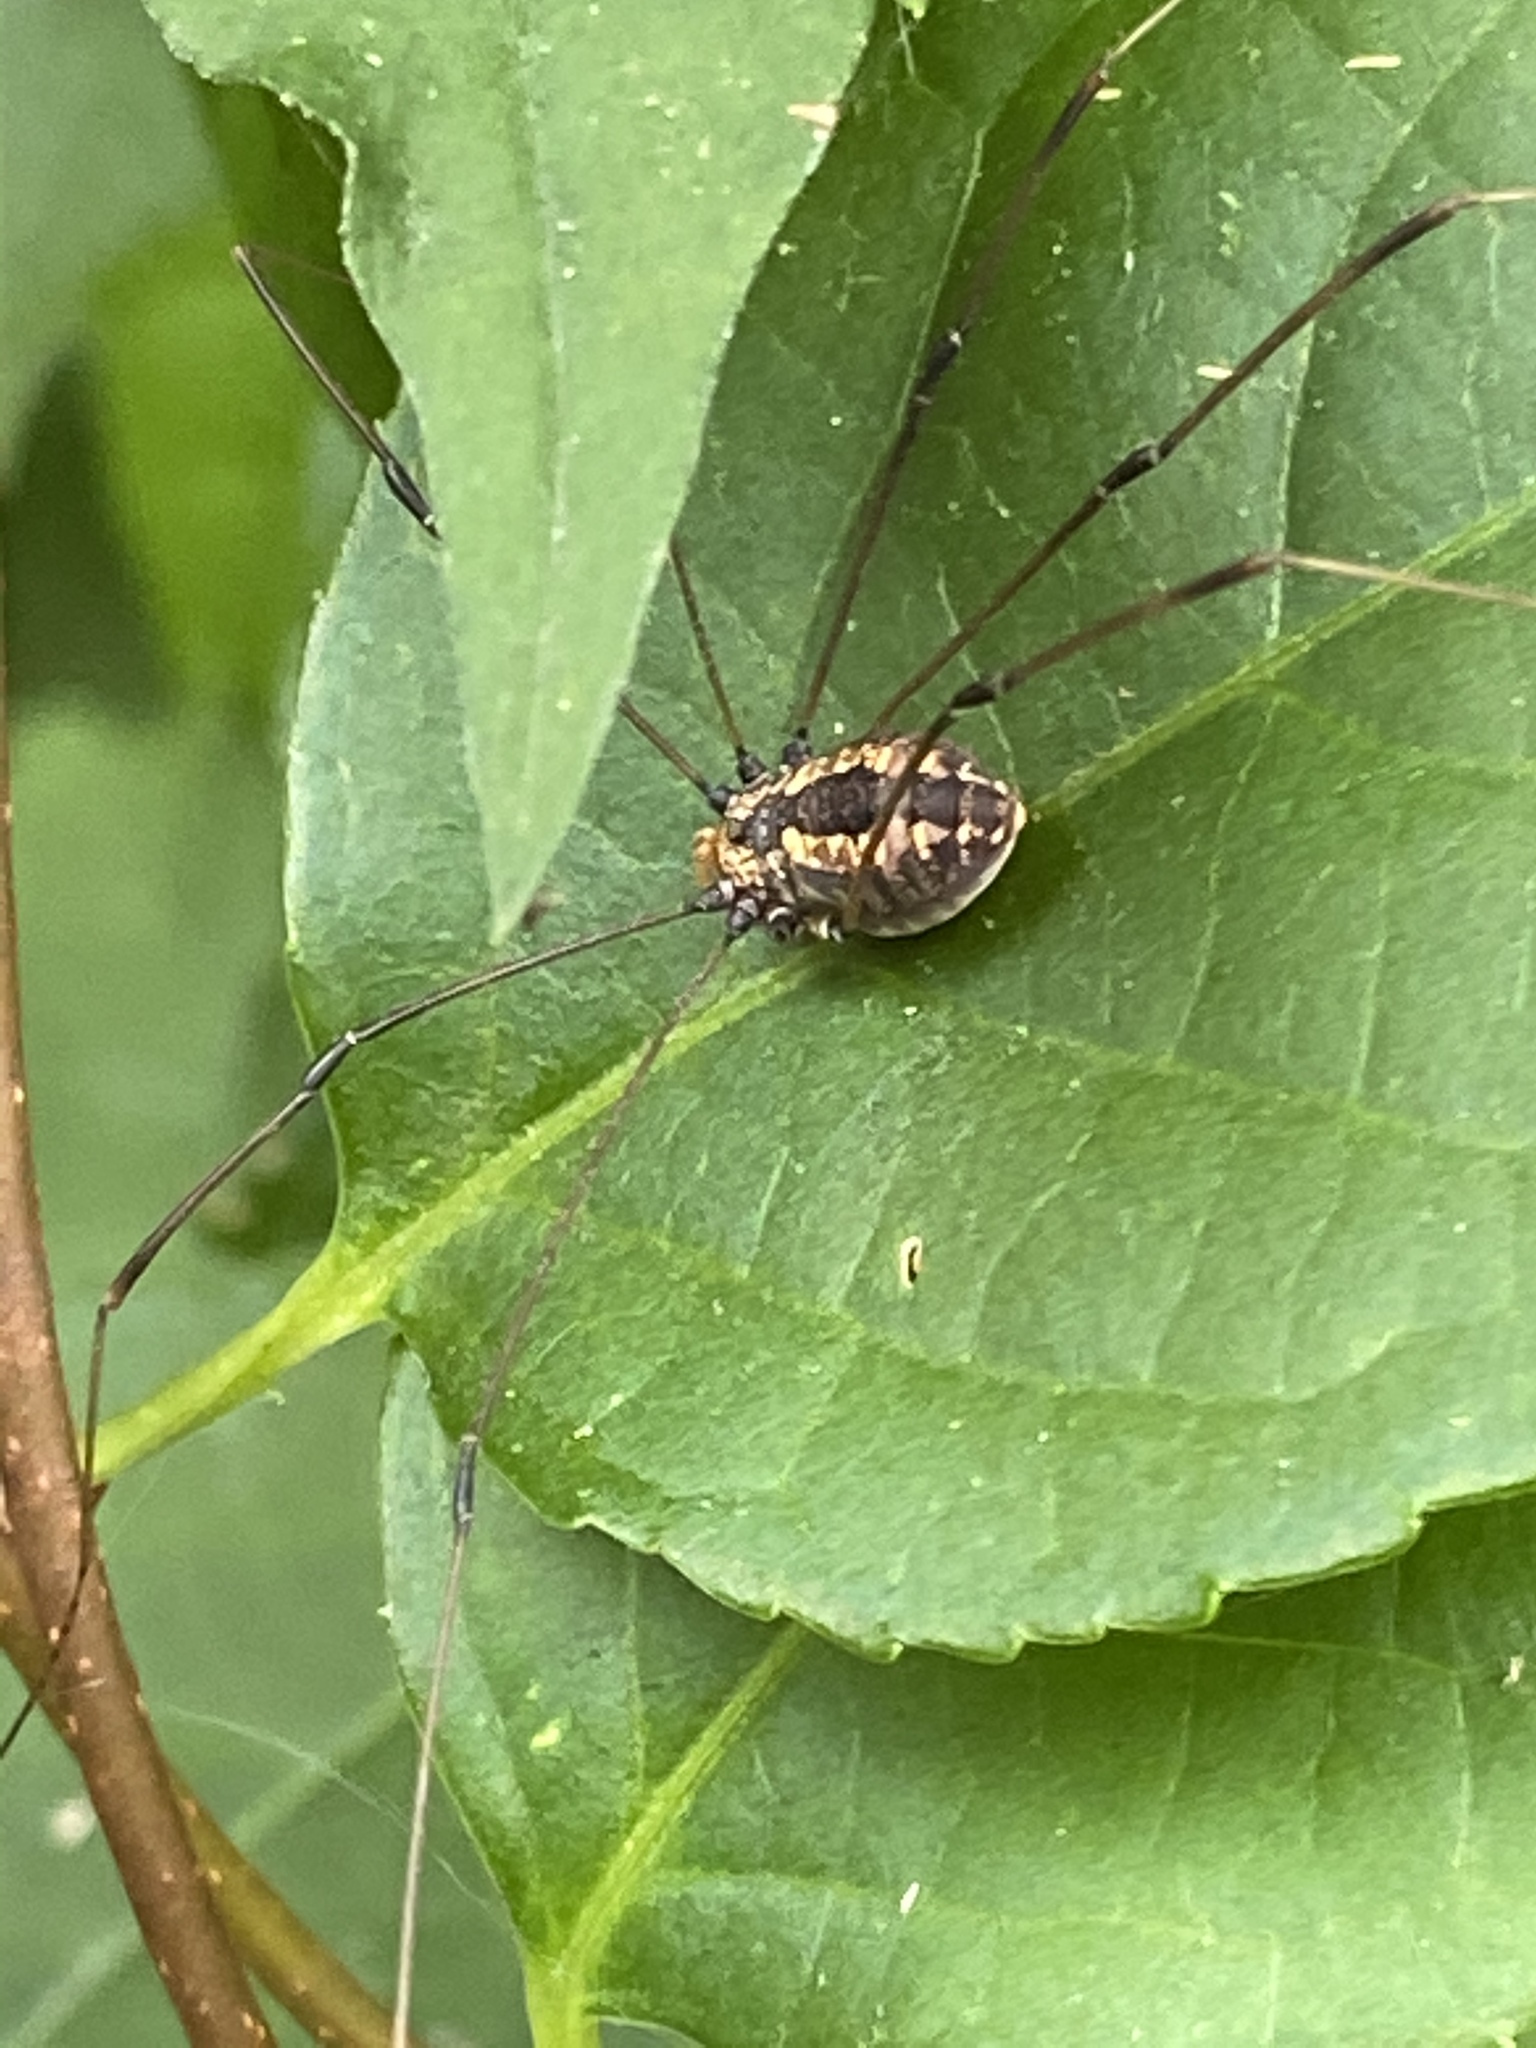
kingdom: Animalia
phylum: Arthropoda
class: Arachnida
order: Opiliones
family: Sclerosomatidae
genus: Leiobunum
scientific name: Leiobunum vittatum
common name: Eastern harvestman
